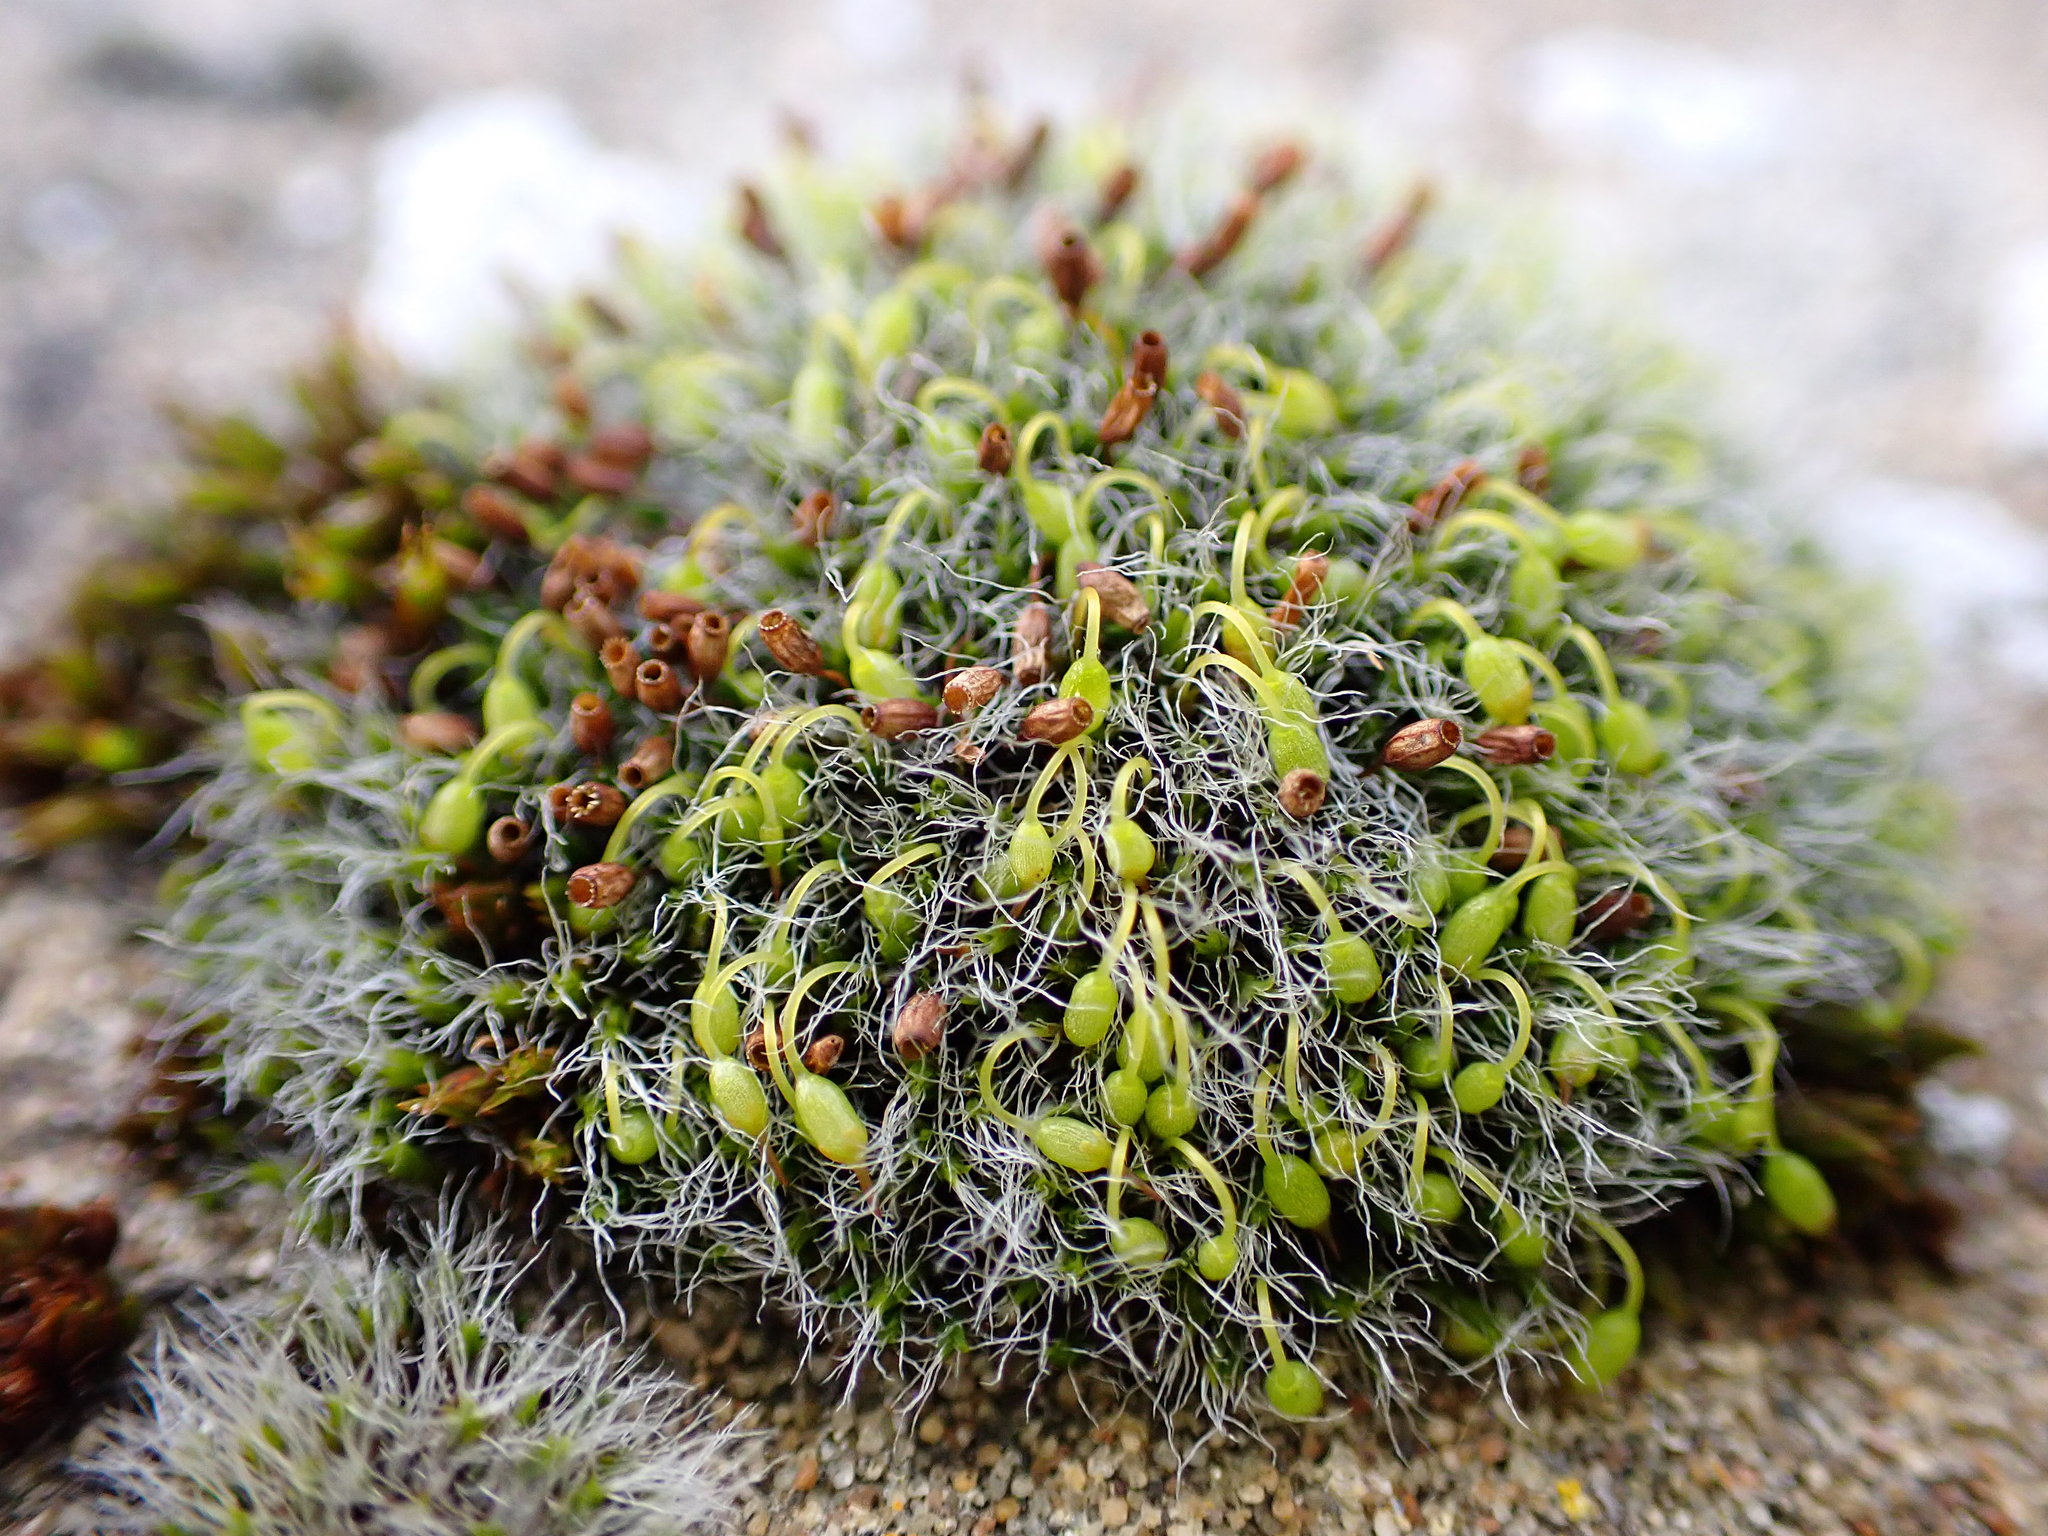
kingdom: Plantae
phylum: Bryophyta
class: Bryopsida
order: Grimmiales
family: Grimmiaceae
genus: Grimmia
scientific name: Grimmia pulvinata
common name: Grey-cushioned grimmia
